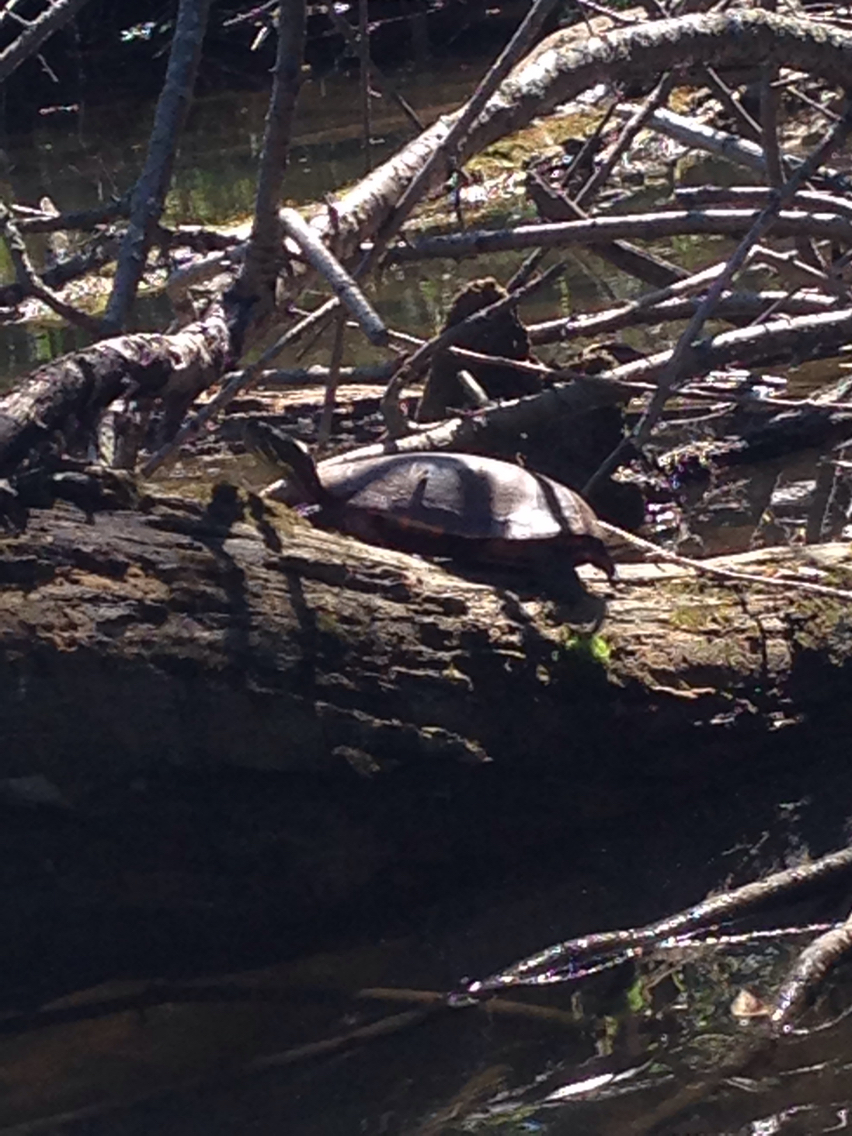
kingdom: Animalia
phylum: Chordata
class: Testudines
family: Emydidae
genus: Chrysemys
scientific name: Chrysemys picta
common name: Painted turtle
